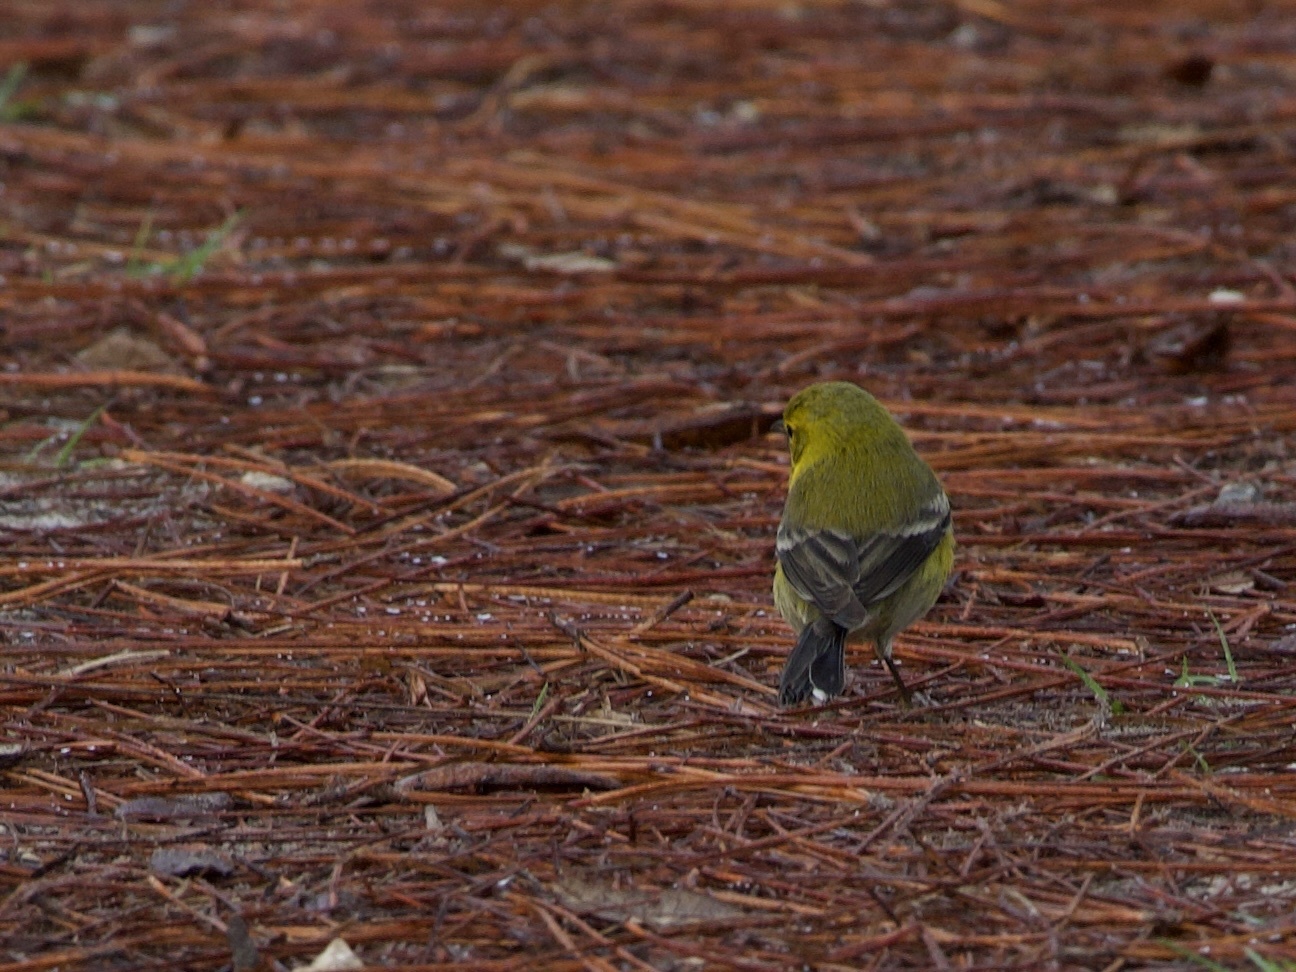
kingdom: Animalia
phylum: Chordata
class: Aves
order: Passeriformes
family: Parulidae
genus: Setophaga
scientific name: Setophaga pinus
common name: Pine warbler
